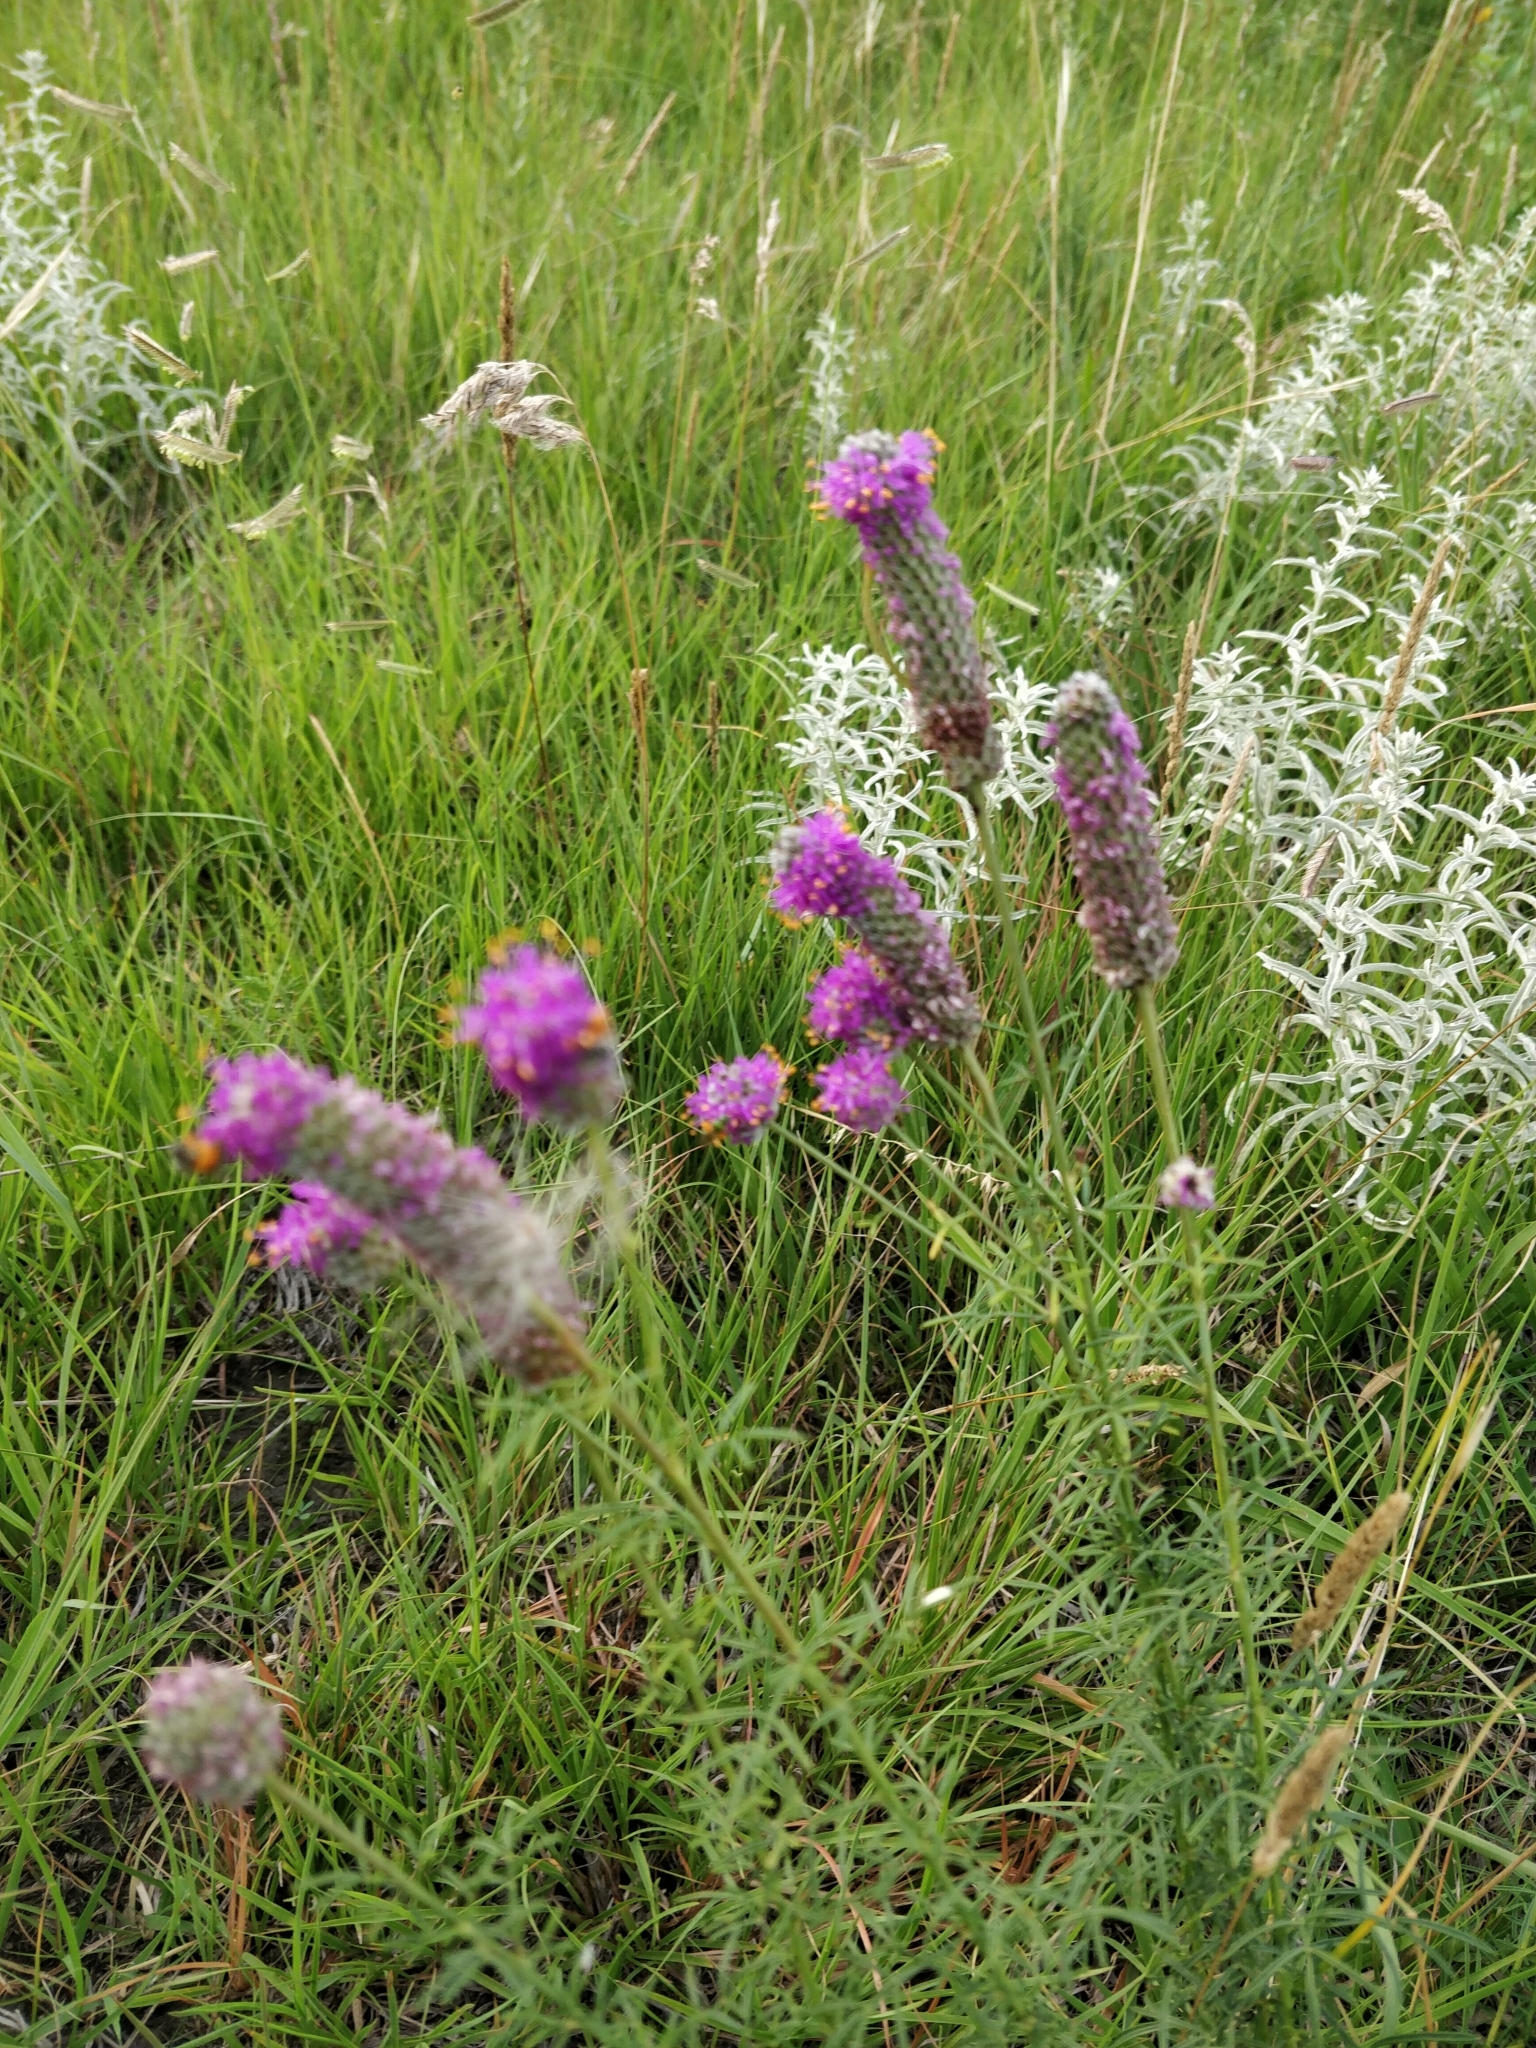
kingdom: Plantae
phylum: Tracheophyta
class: Magnoliopsida
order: Fabales
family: Fabaceae
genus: Dalea
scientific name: Dalea purpurea
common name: Purple prairie-clover
